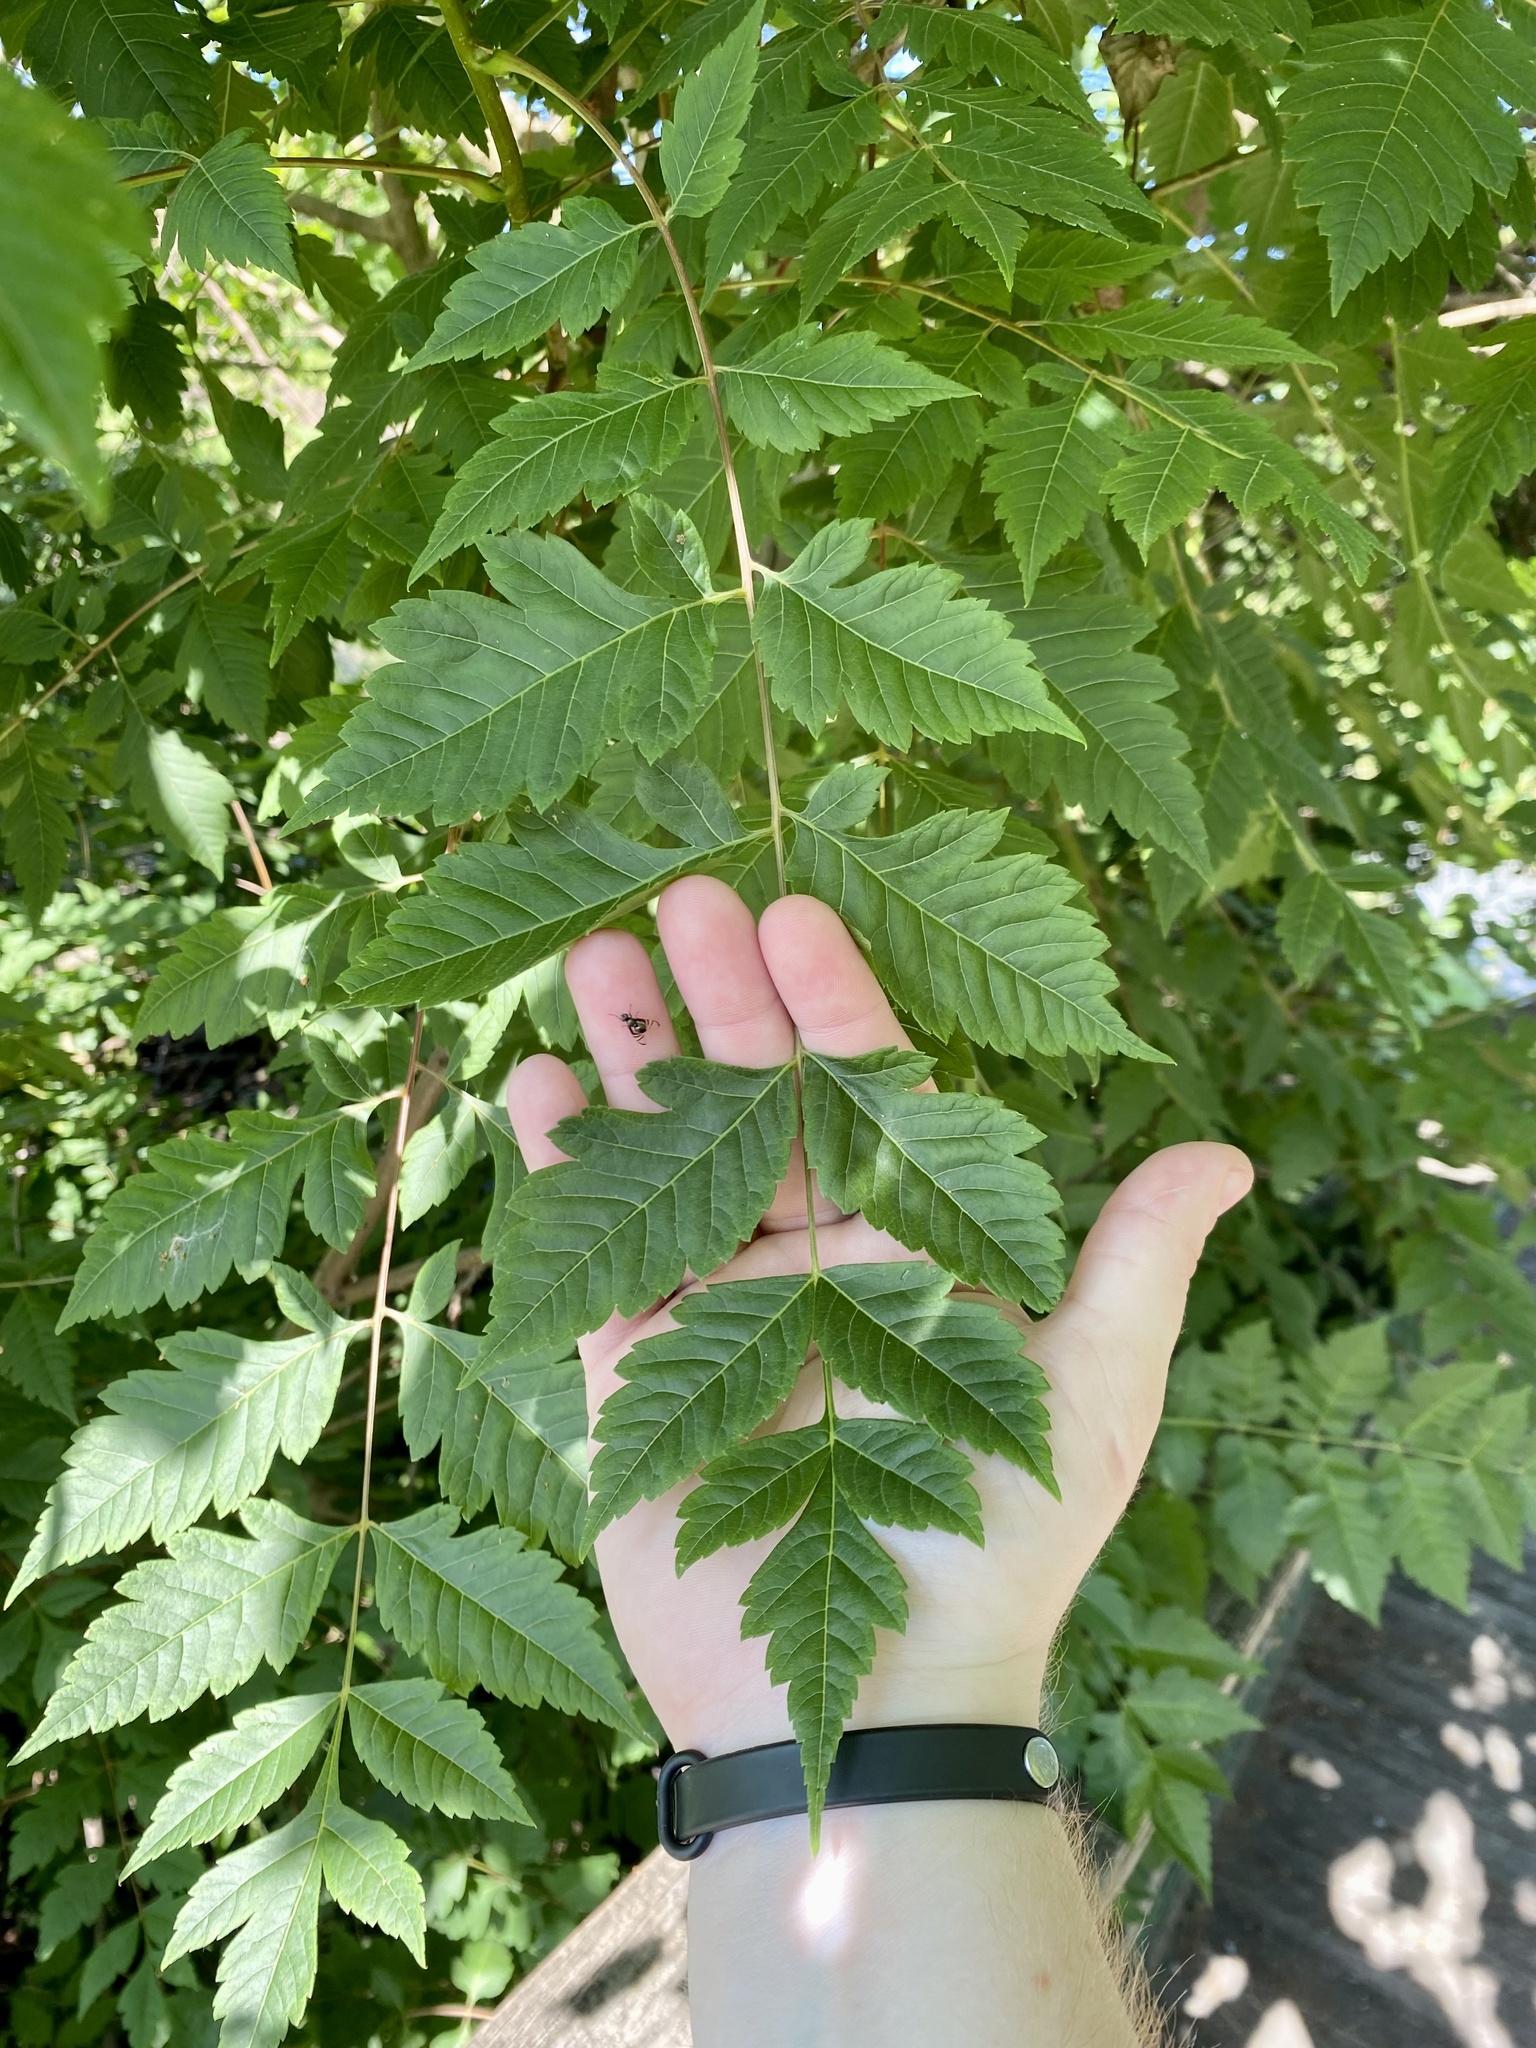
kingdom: Plantae
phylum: Tracheophyta
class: Magnoliopsida
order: Sapindales
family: Sapindaceae
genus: Koelreuteria
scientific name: Koelreuteria paniculata
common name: Pride-of-india
